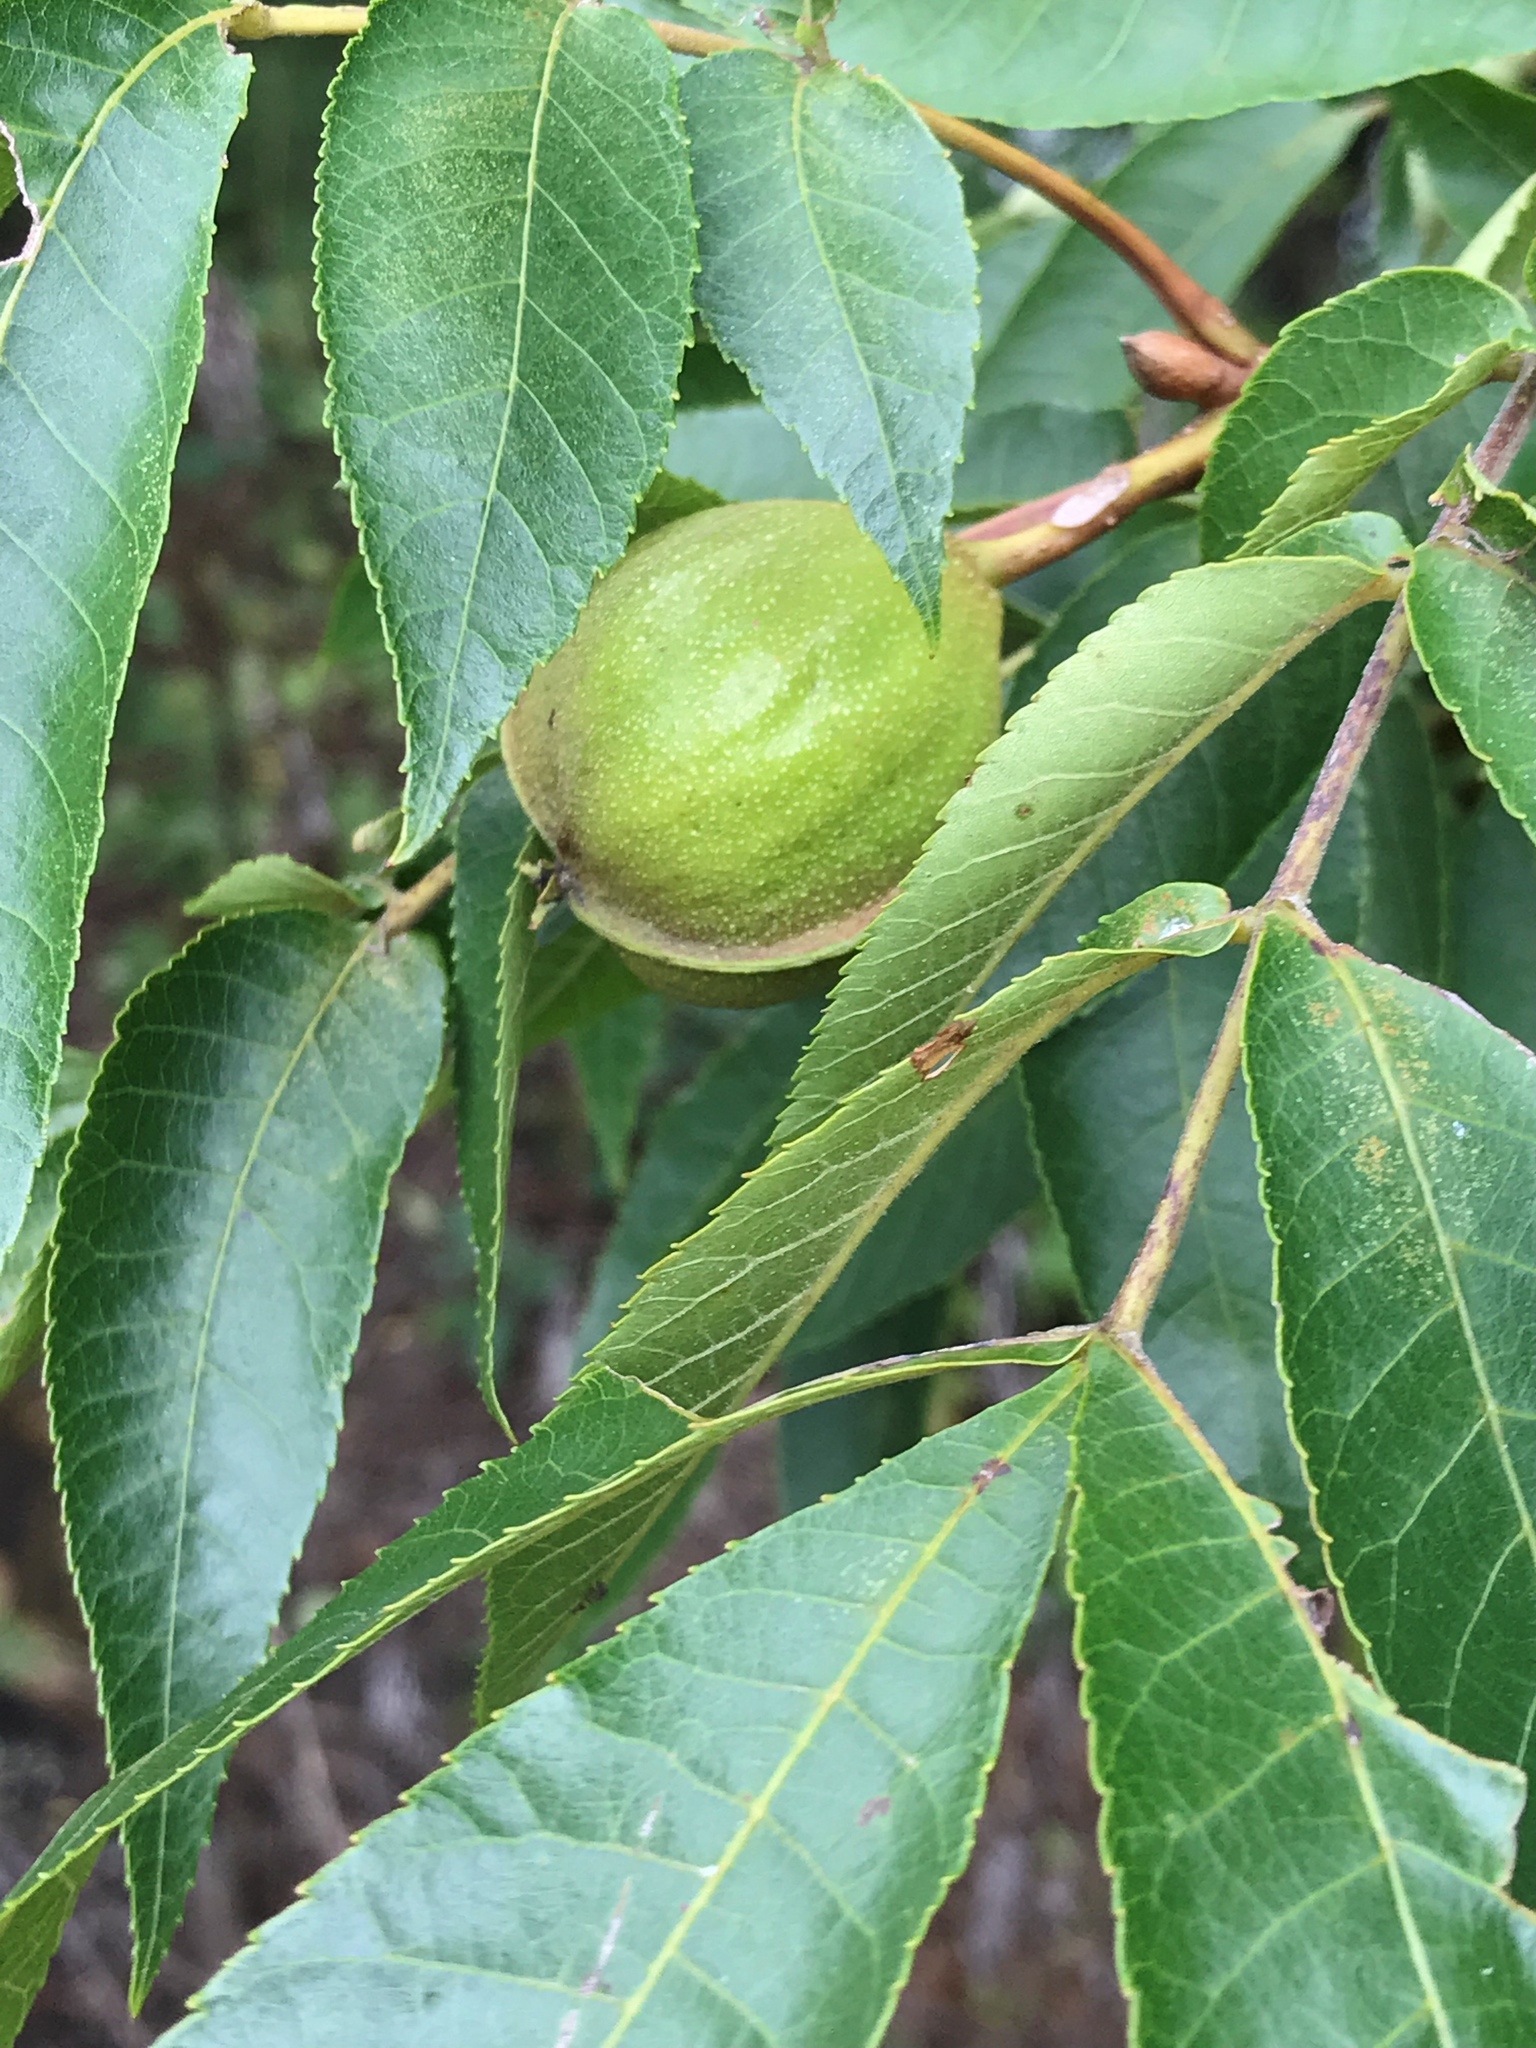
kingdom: Plantae
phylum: Tracheophyta
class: Magnoliopsida
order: Fagales
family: Juglandaceae
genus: Carya
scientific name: Carya cordiformis
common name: Bitternut hickory
